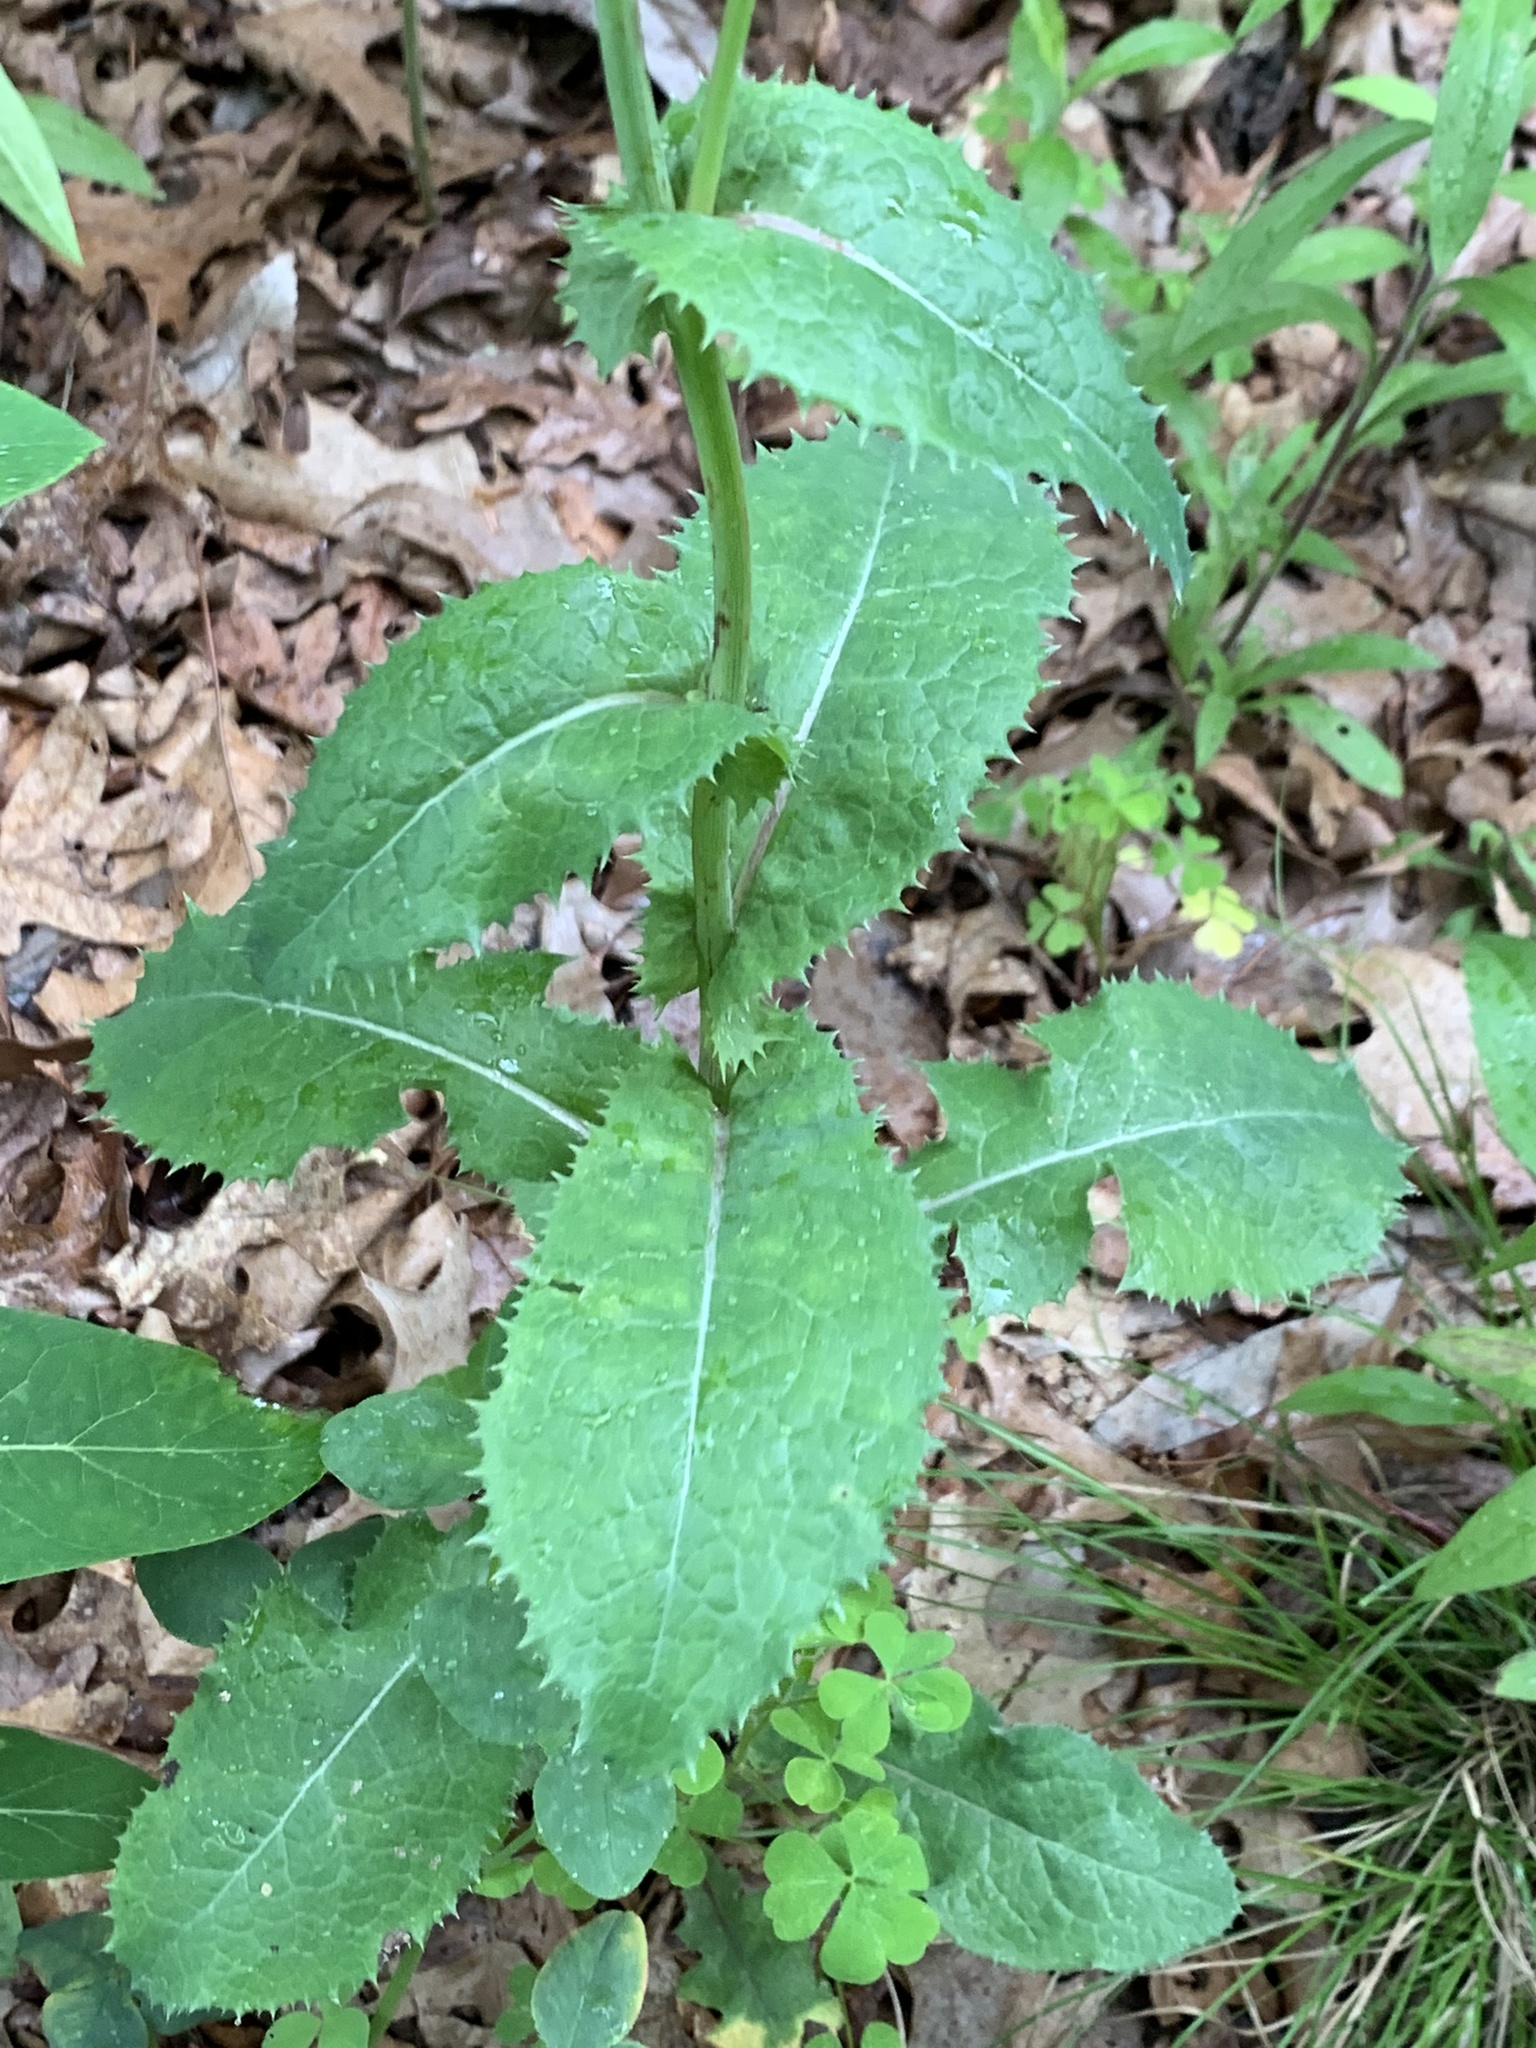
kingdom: Plantae
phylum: Tracheophyta
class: Magnoliopsida
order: Asterales
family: Asteraceae
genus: Sonchus
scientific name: Sonchus asper
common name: Prickly sow-thistle
